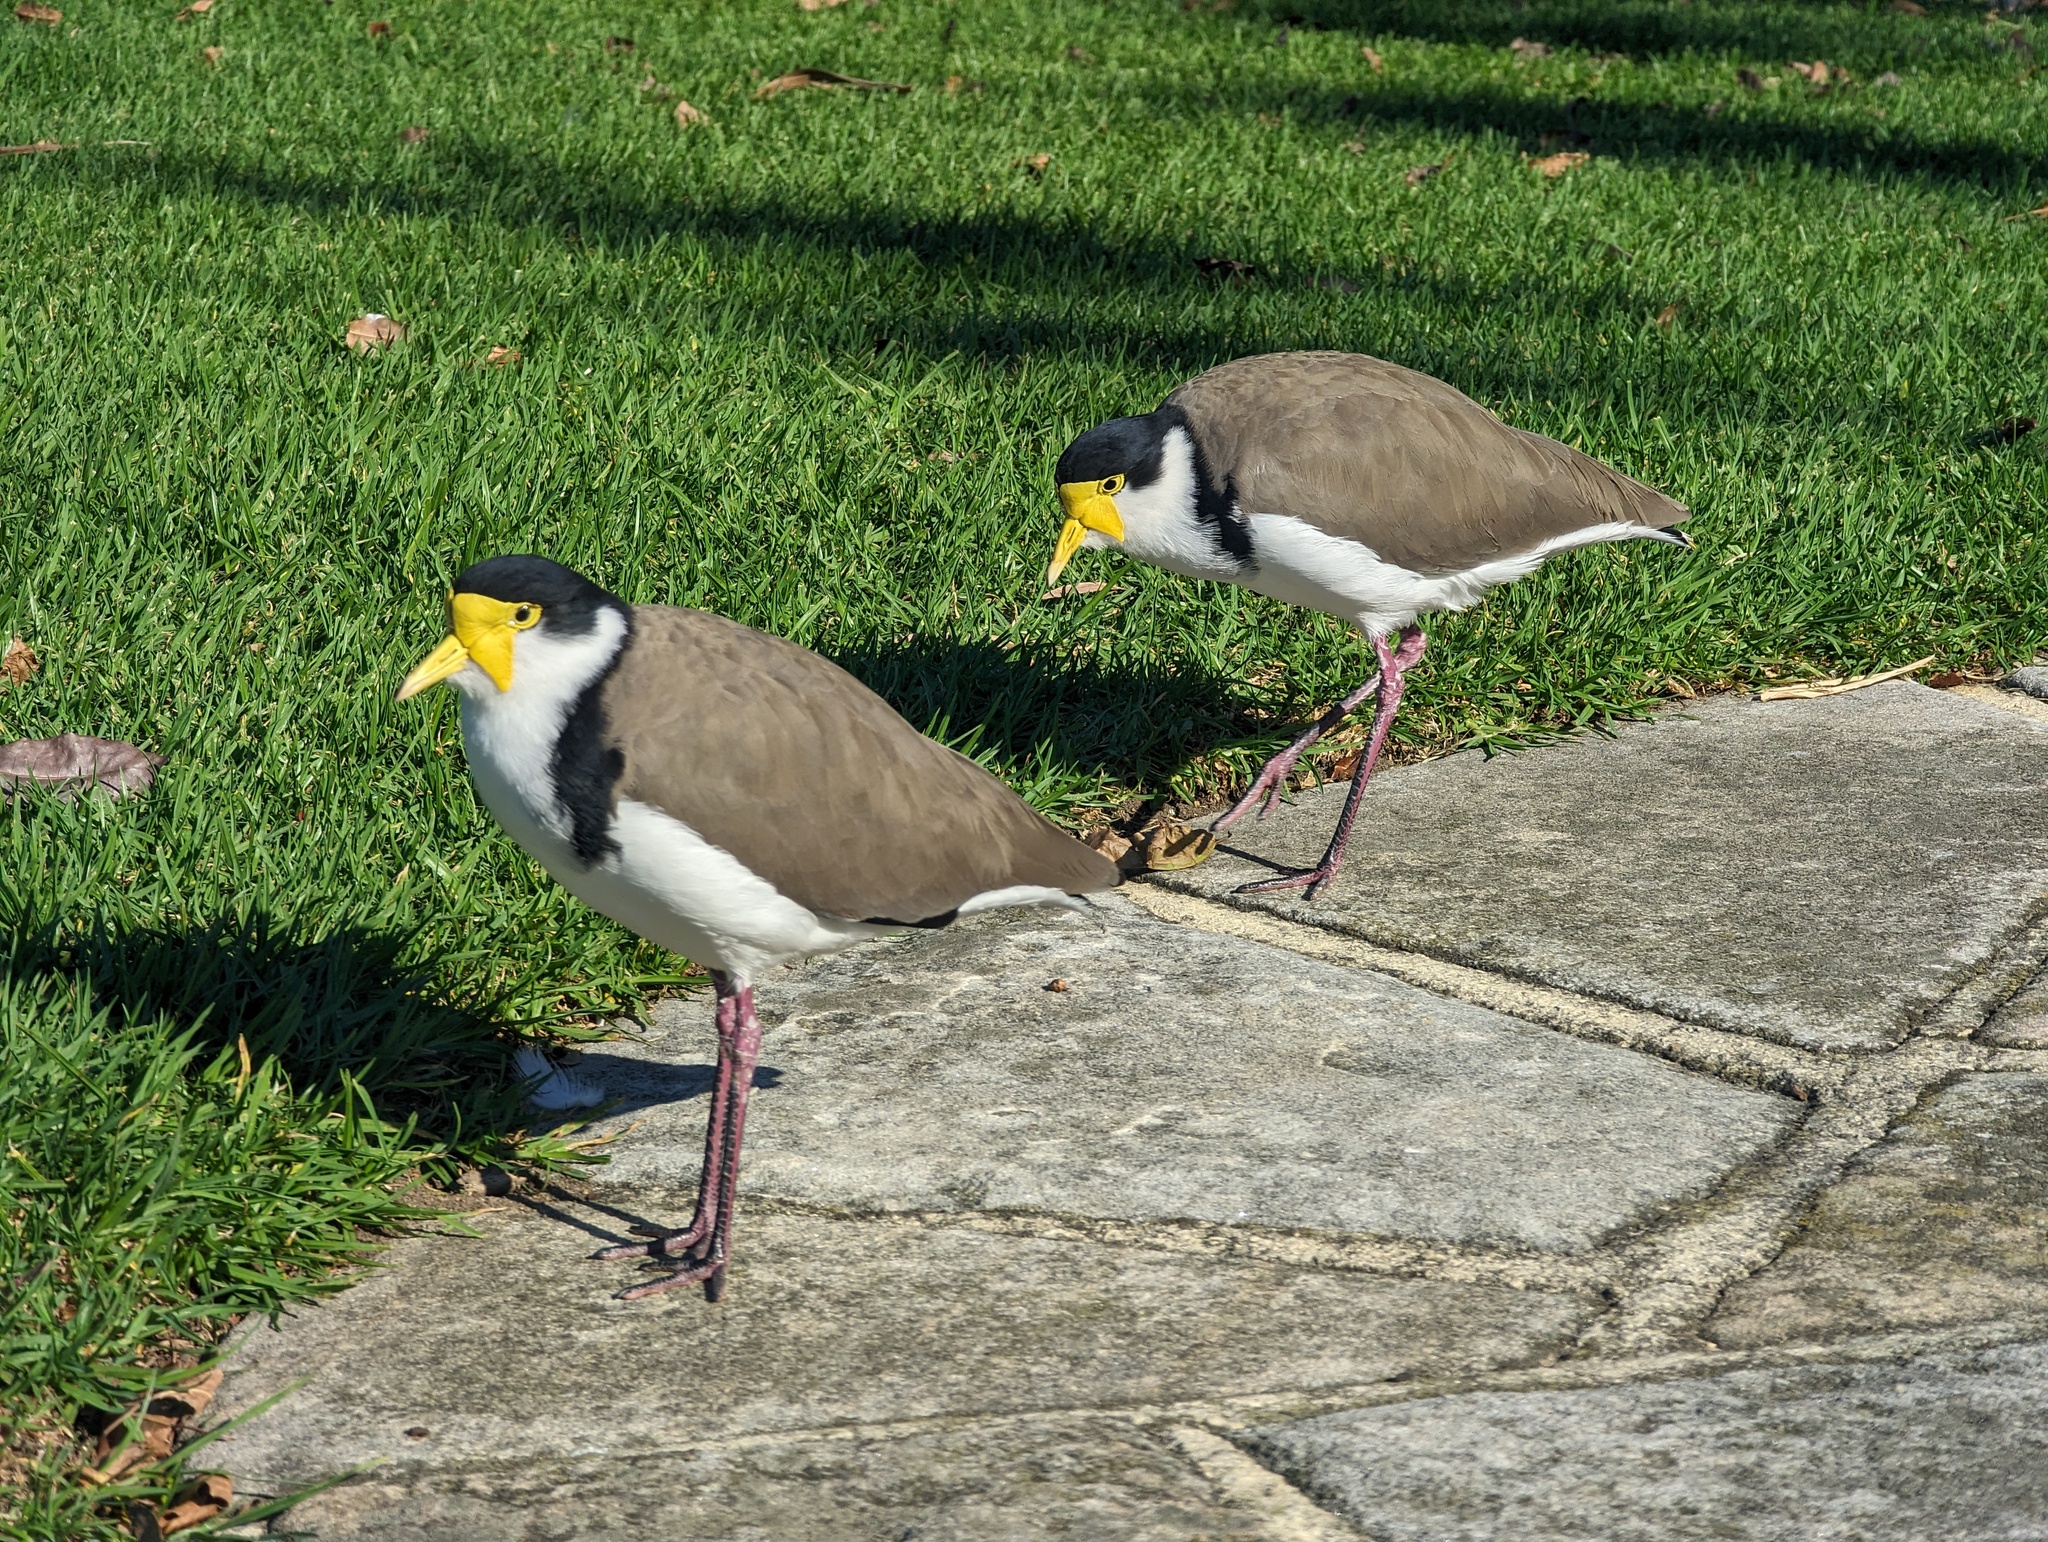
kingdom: Animalia
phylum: Chordata
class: Aves
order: Charadriiformes
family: Charadriidae
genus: Vanellus
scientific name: Vanellus miles
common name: Masked lapwing
